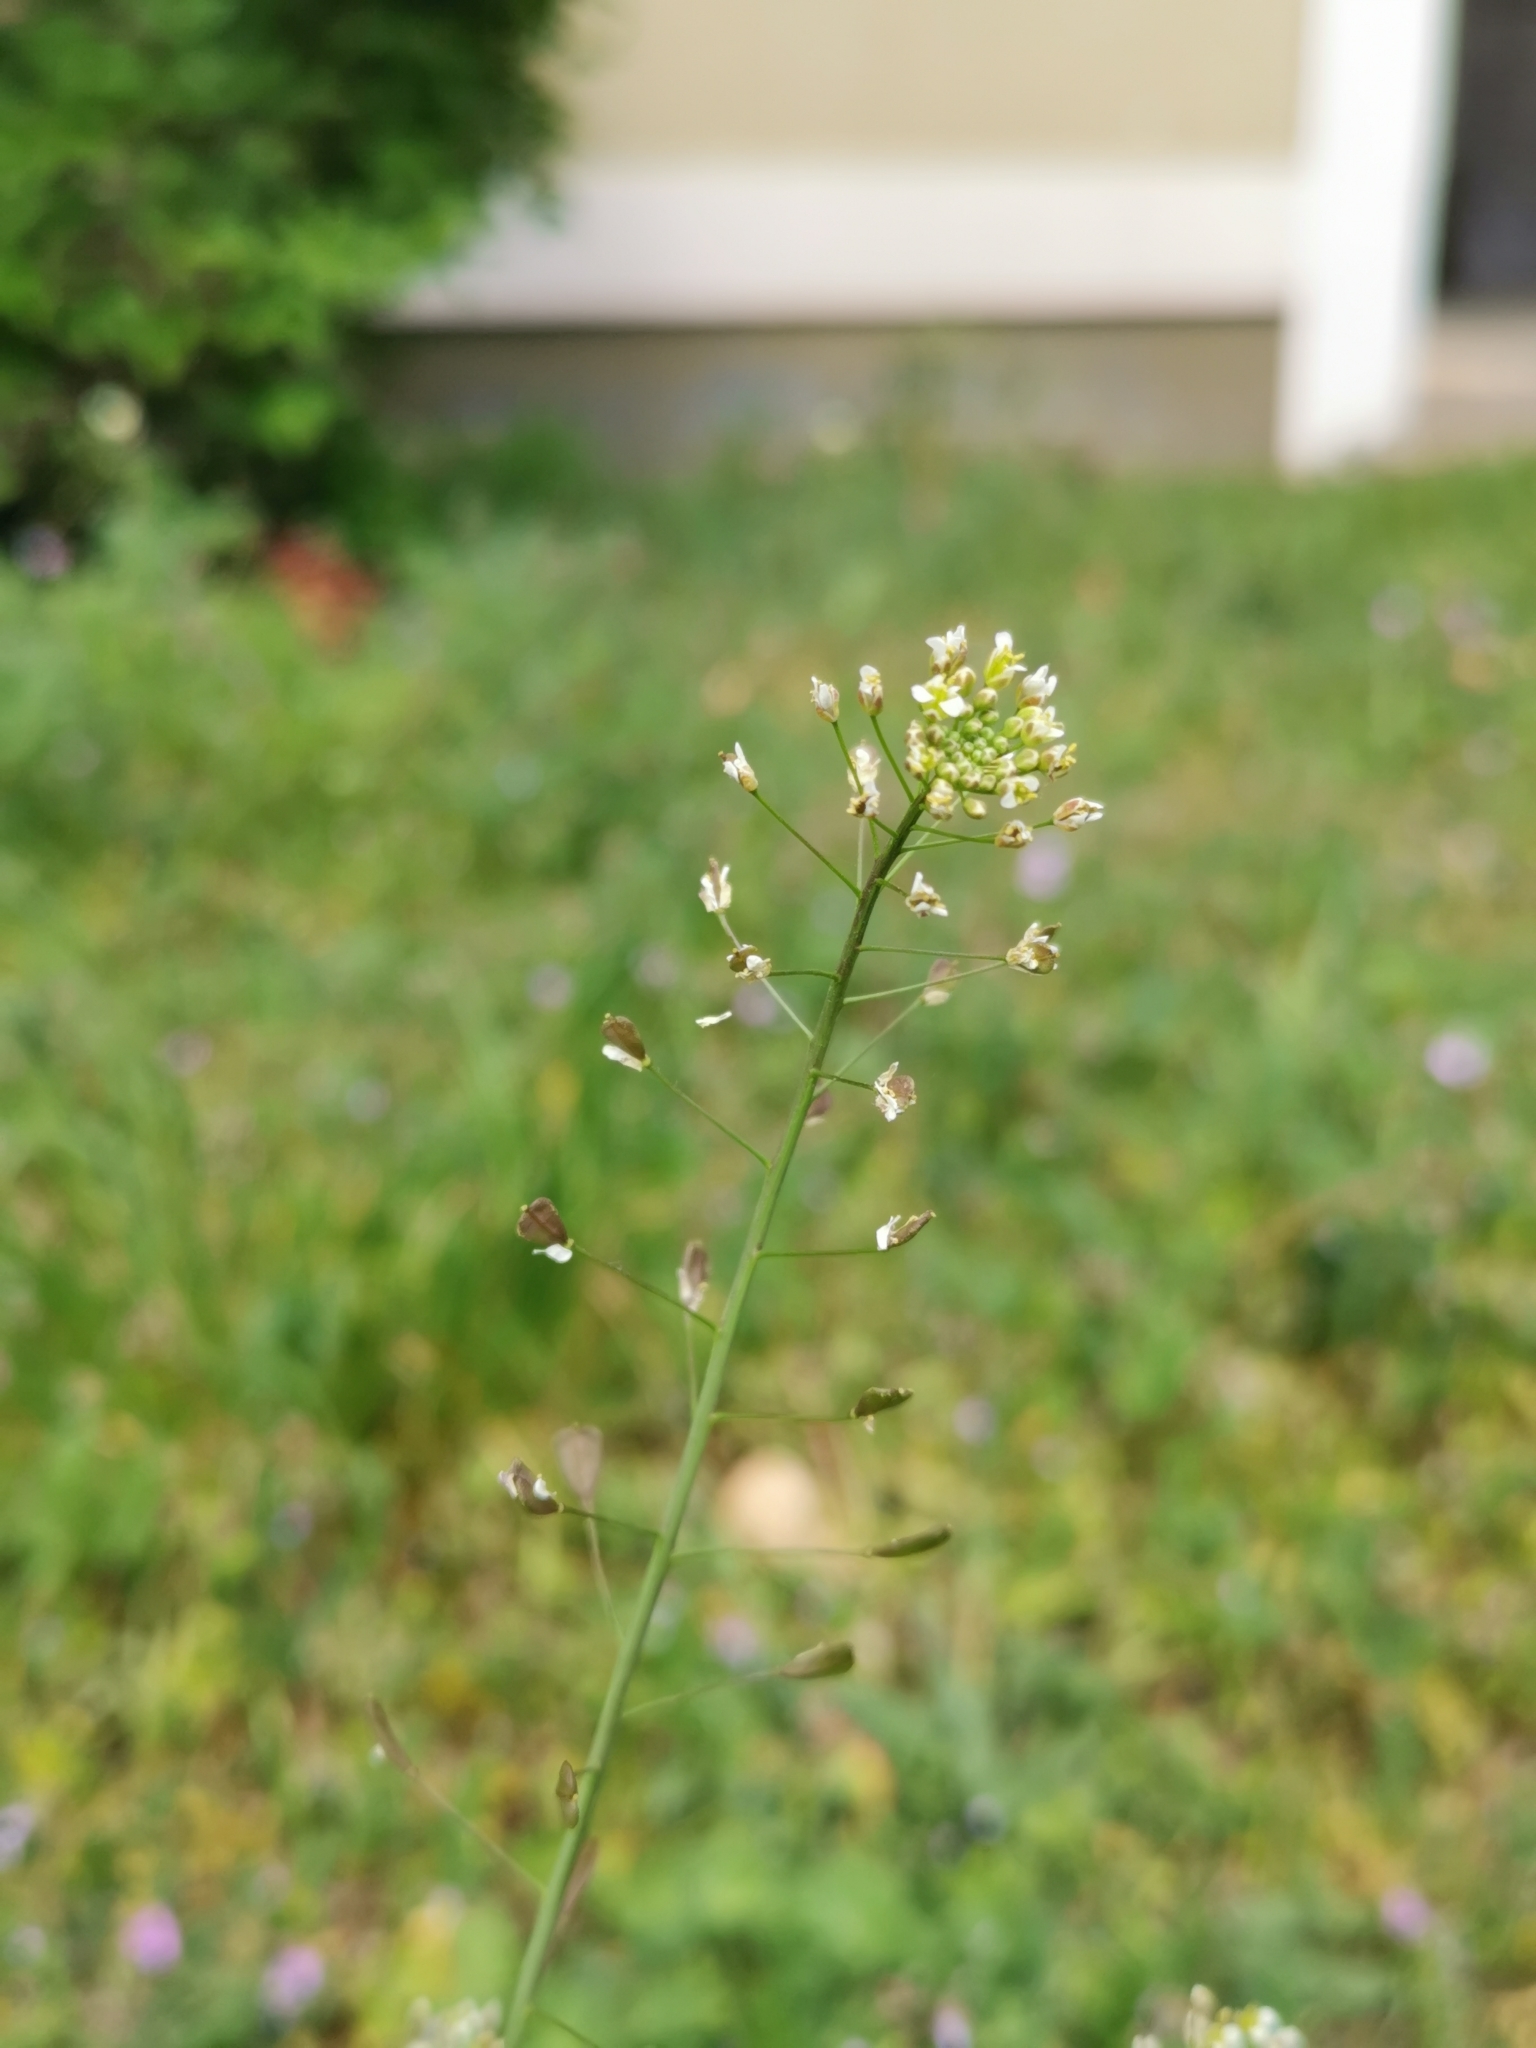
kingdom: Plantae
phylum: Tracheophyta
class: Magnoliopsida
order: Brassicales
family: Brassicaceae
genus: Capsella
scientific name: Capsella bursa-pastoris
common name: Shepherd's purse
